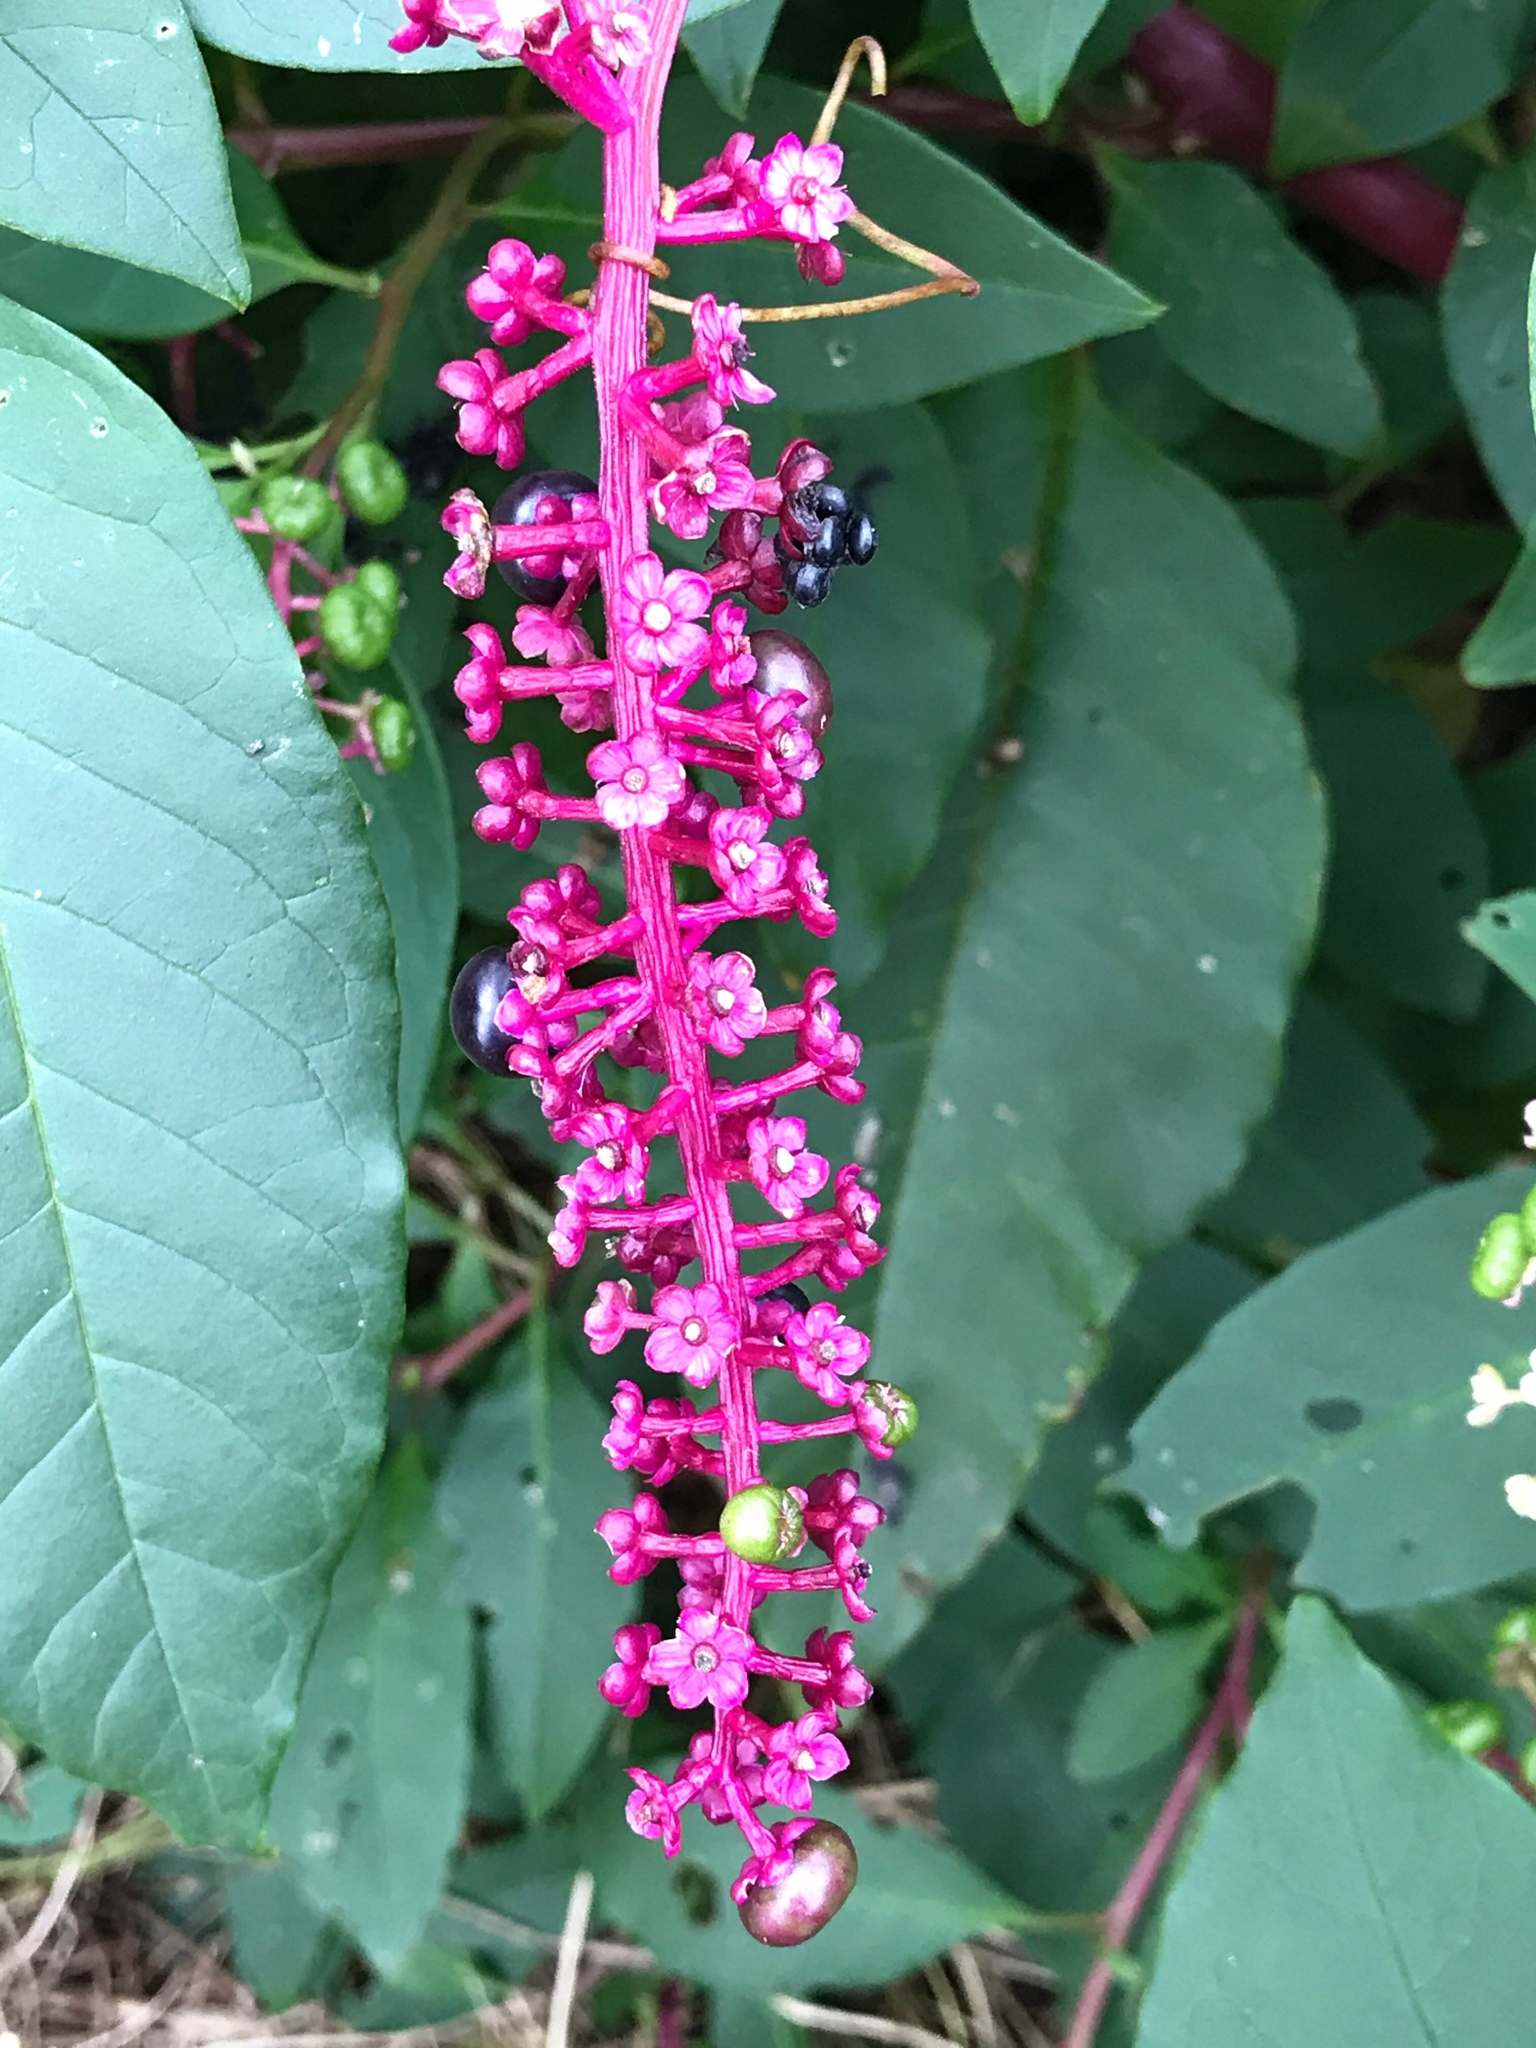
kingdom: Plantae
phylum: Tracheophyta
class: Magnoliopsida
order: Caryophyllales
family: Phytolaccaceae
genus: Phytolacca
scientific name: Phytolacca americana
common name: American pokeweed
